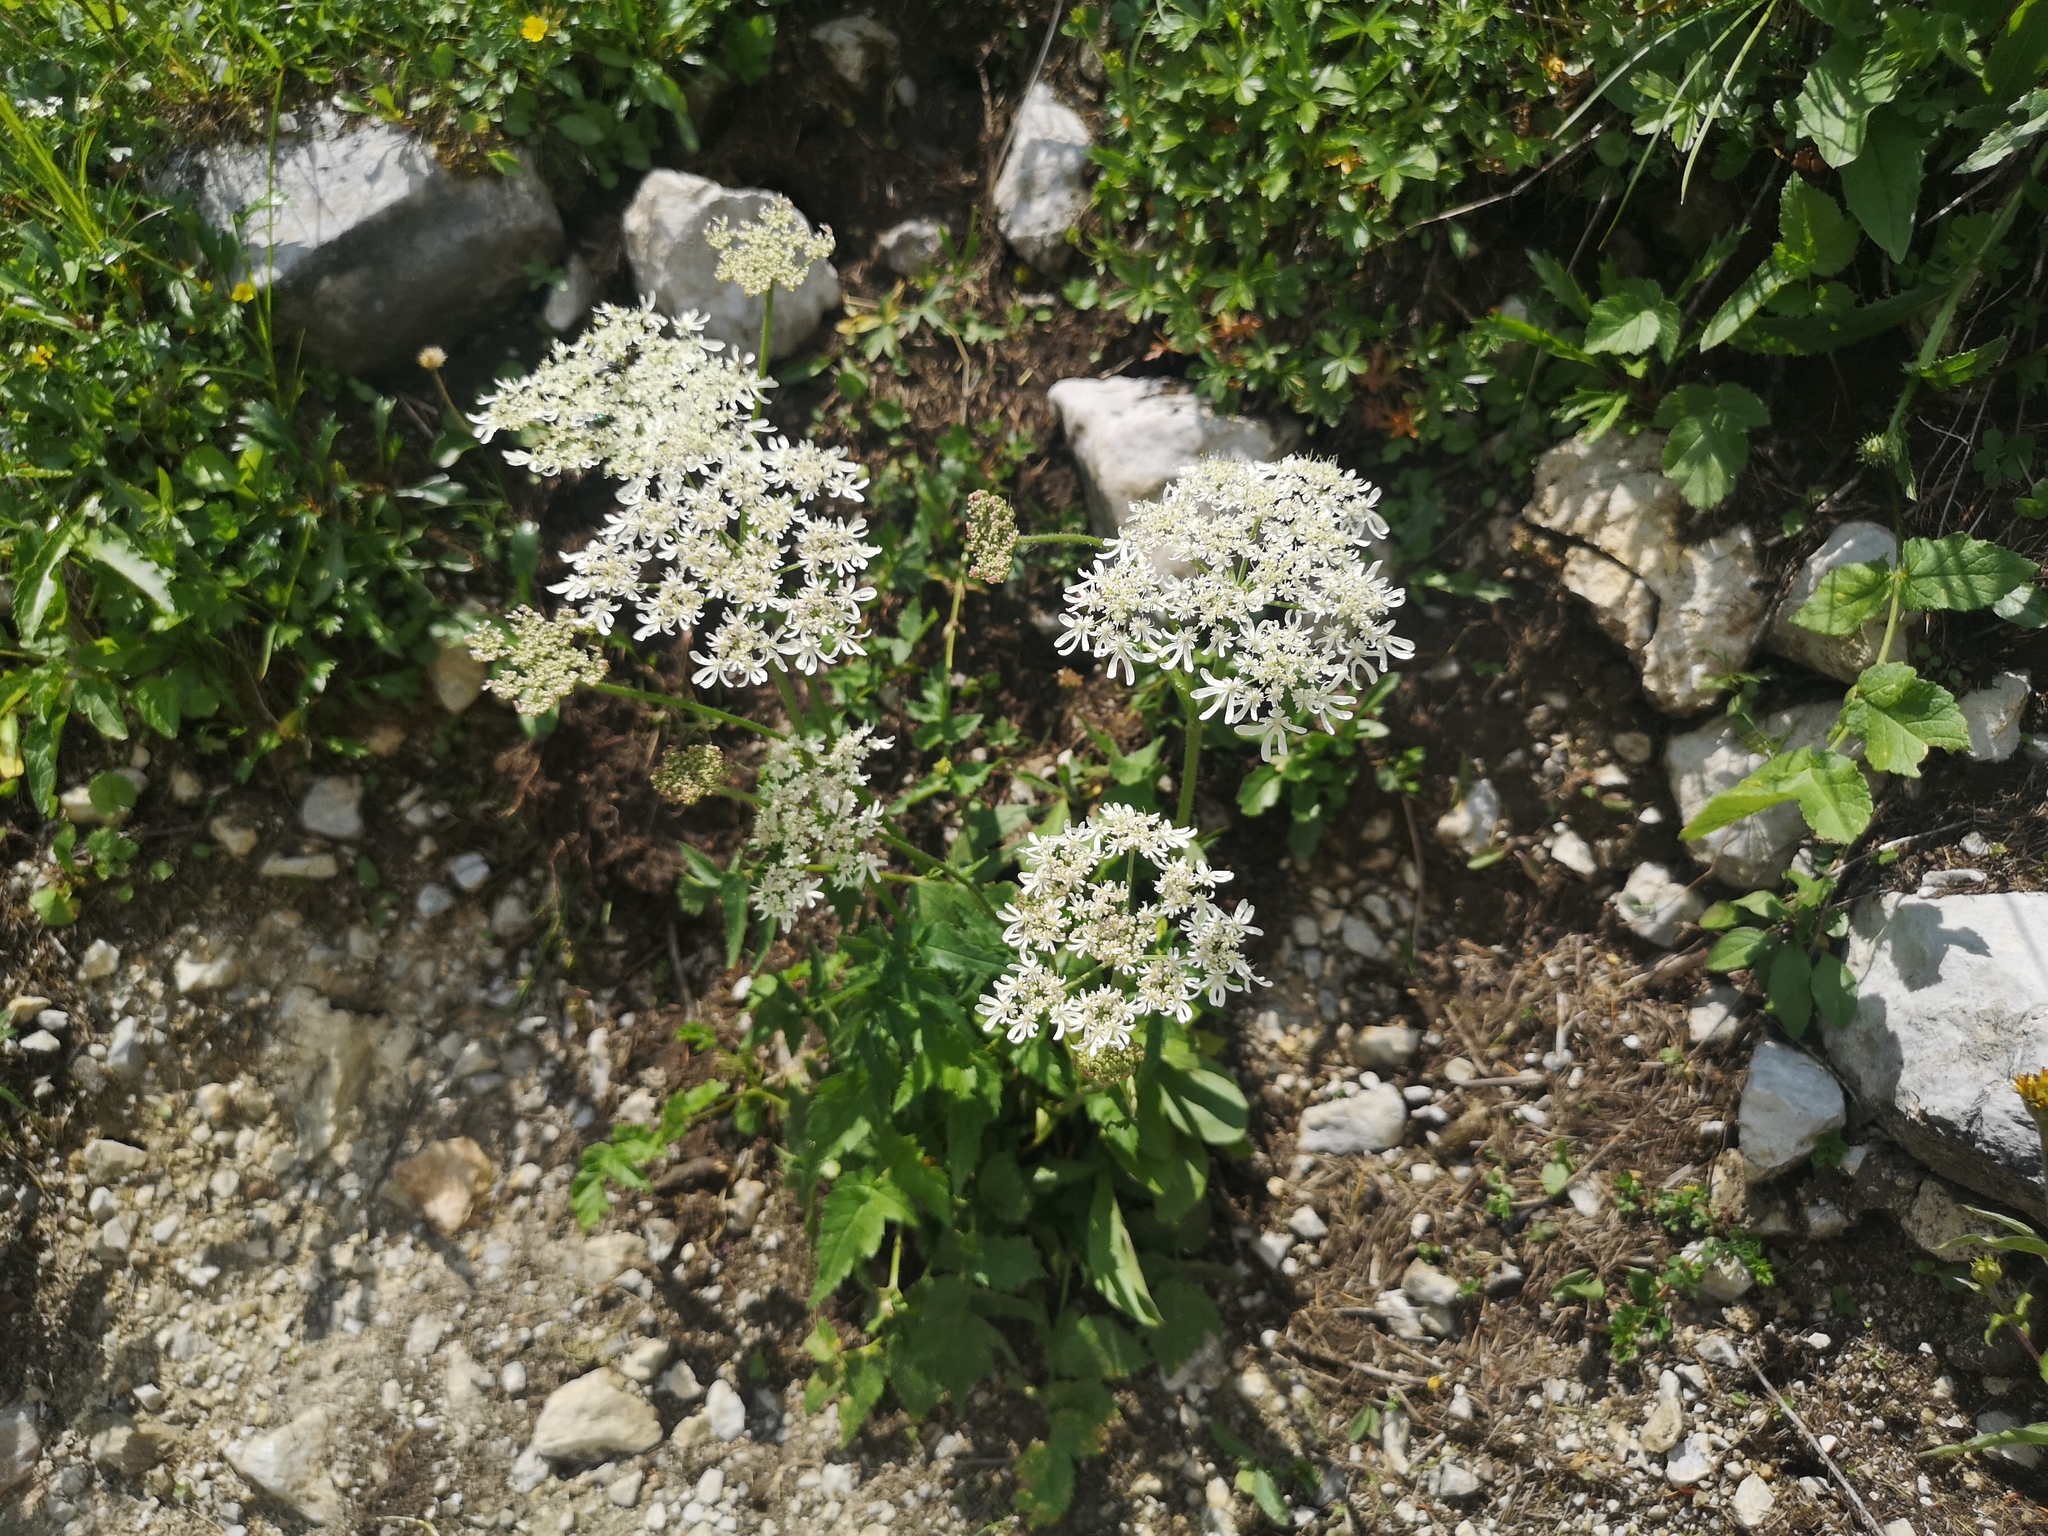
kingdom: Plantae
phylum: Tracheophyta
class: Magnoliopsida
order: Apiales
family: Apiaceae
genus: Heracleum
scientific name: Heracleum austriacum
